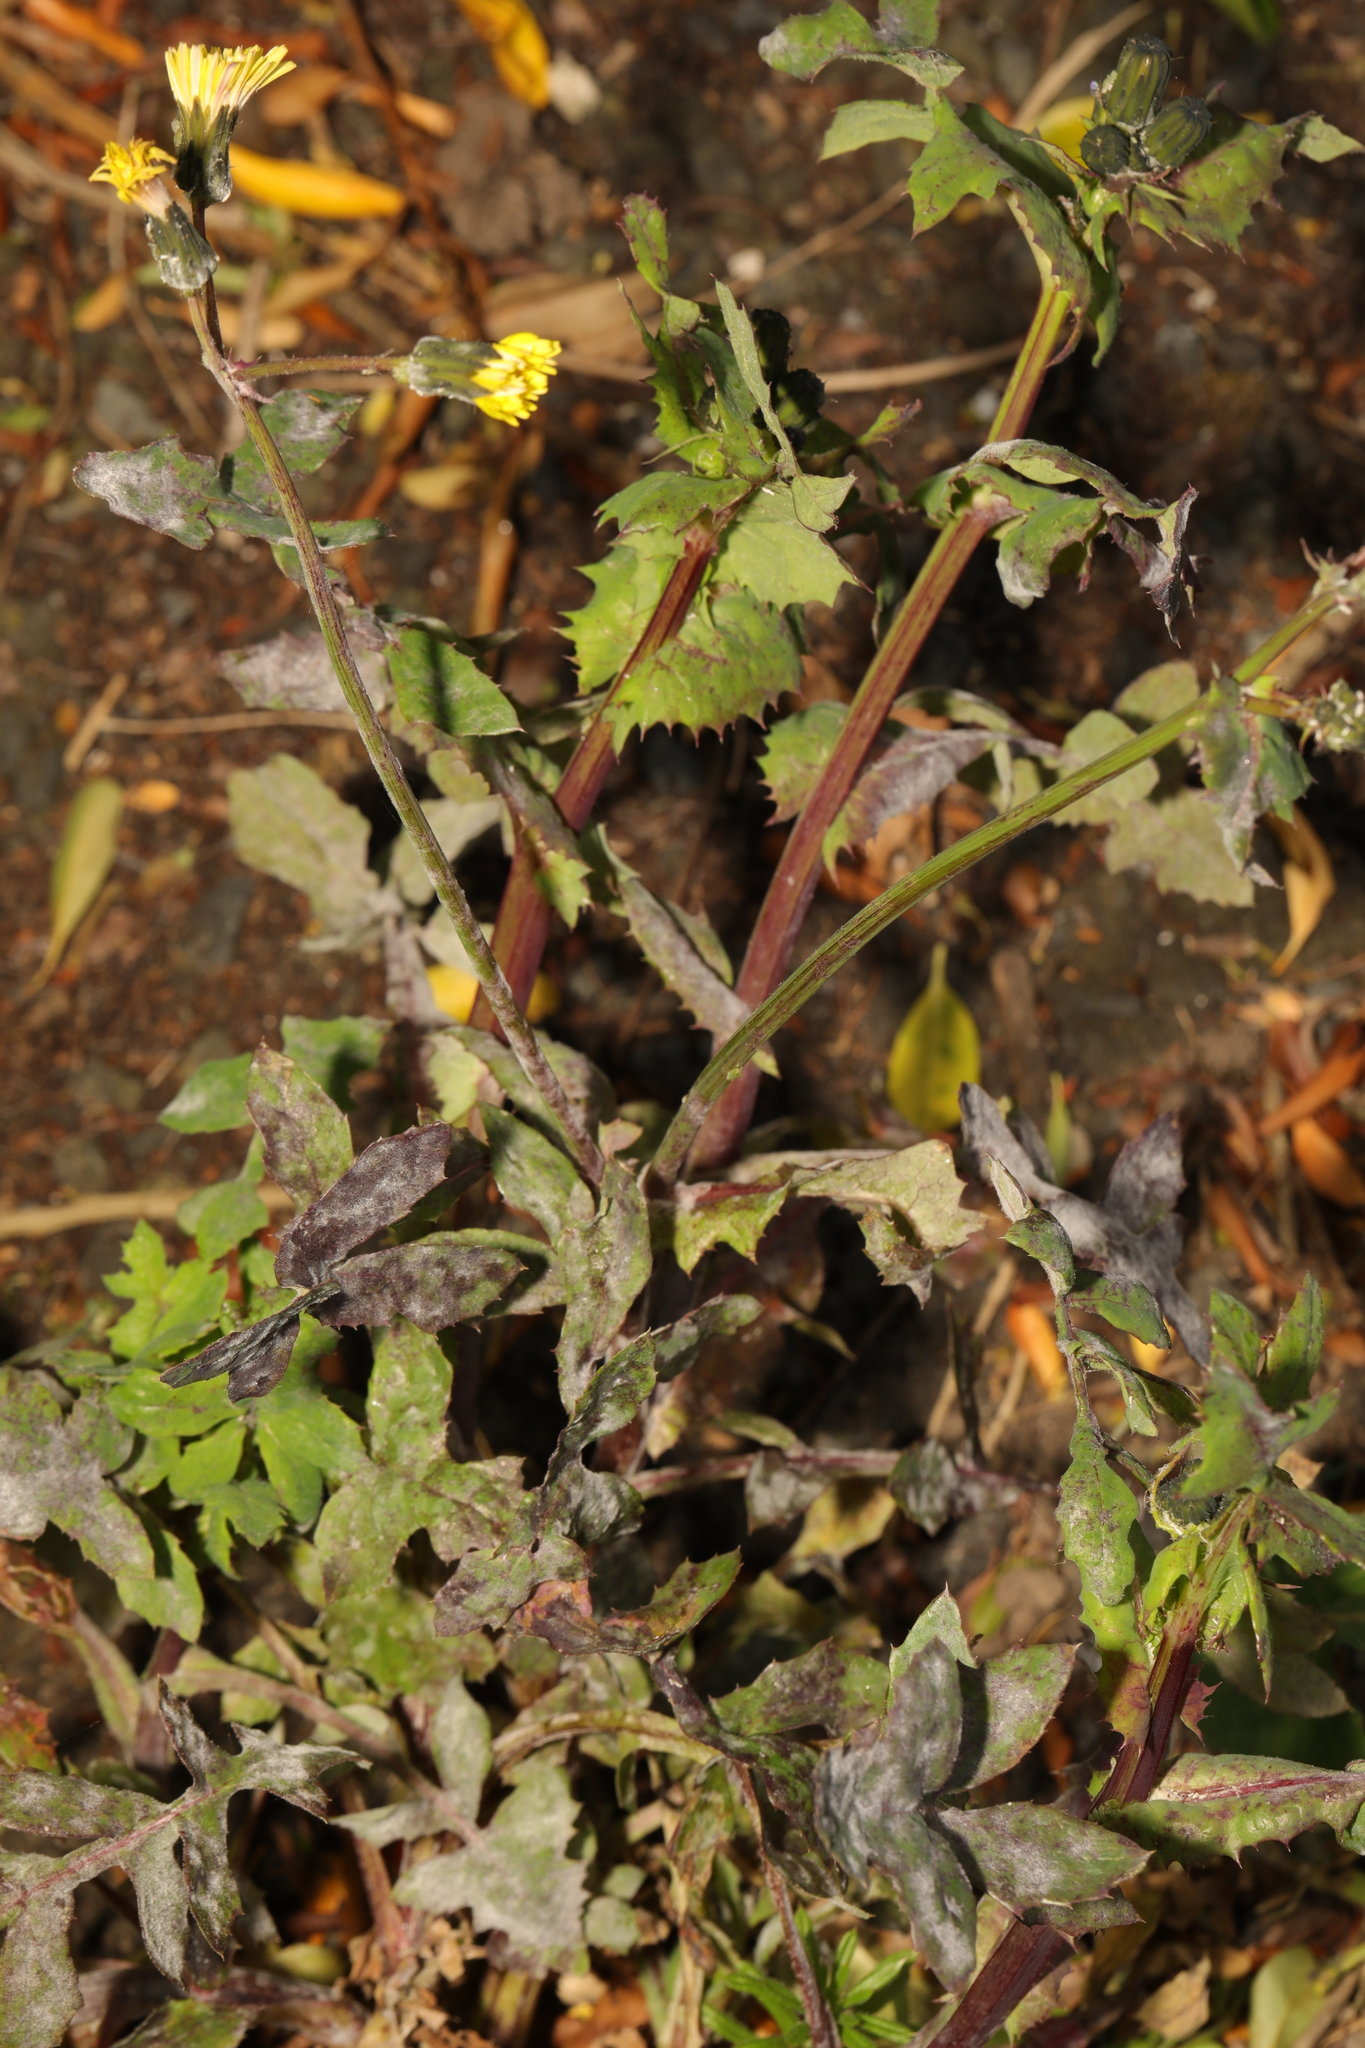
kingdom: Plantae
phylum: Tracheophyta
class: Magnoliopsida
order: Asterales
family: Asteraceae
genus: Sonchus
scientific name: Sonchus oleraceus
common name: Common sowthistle
